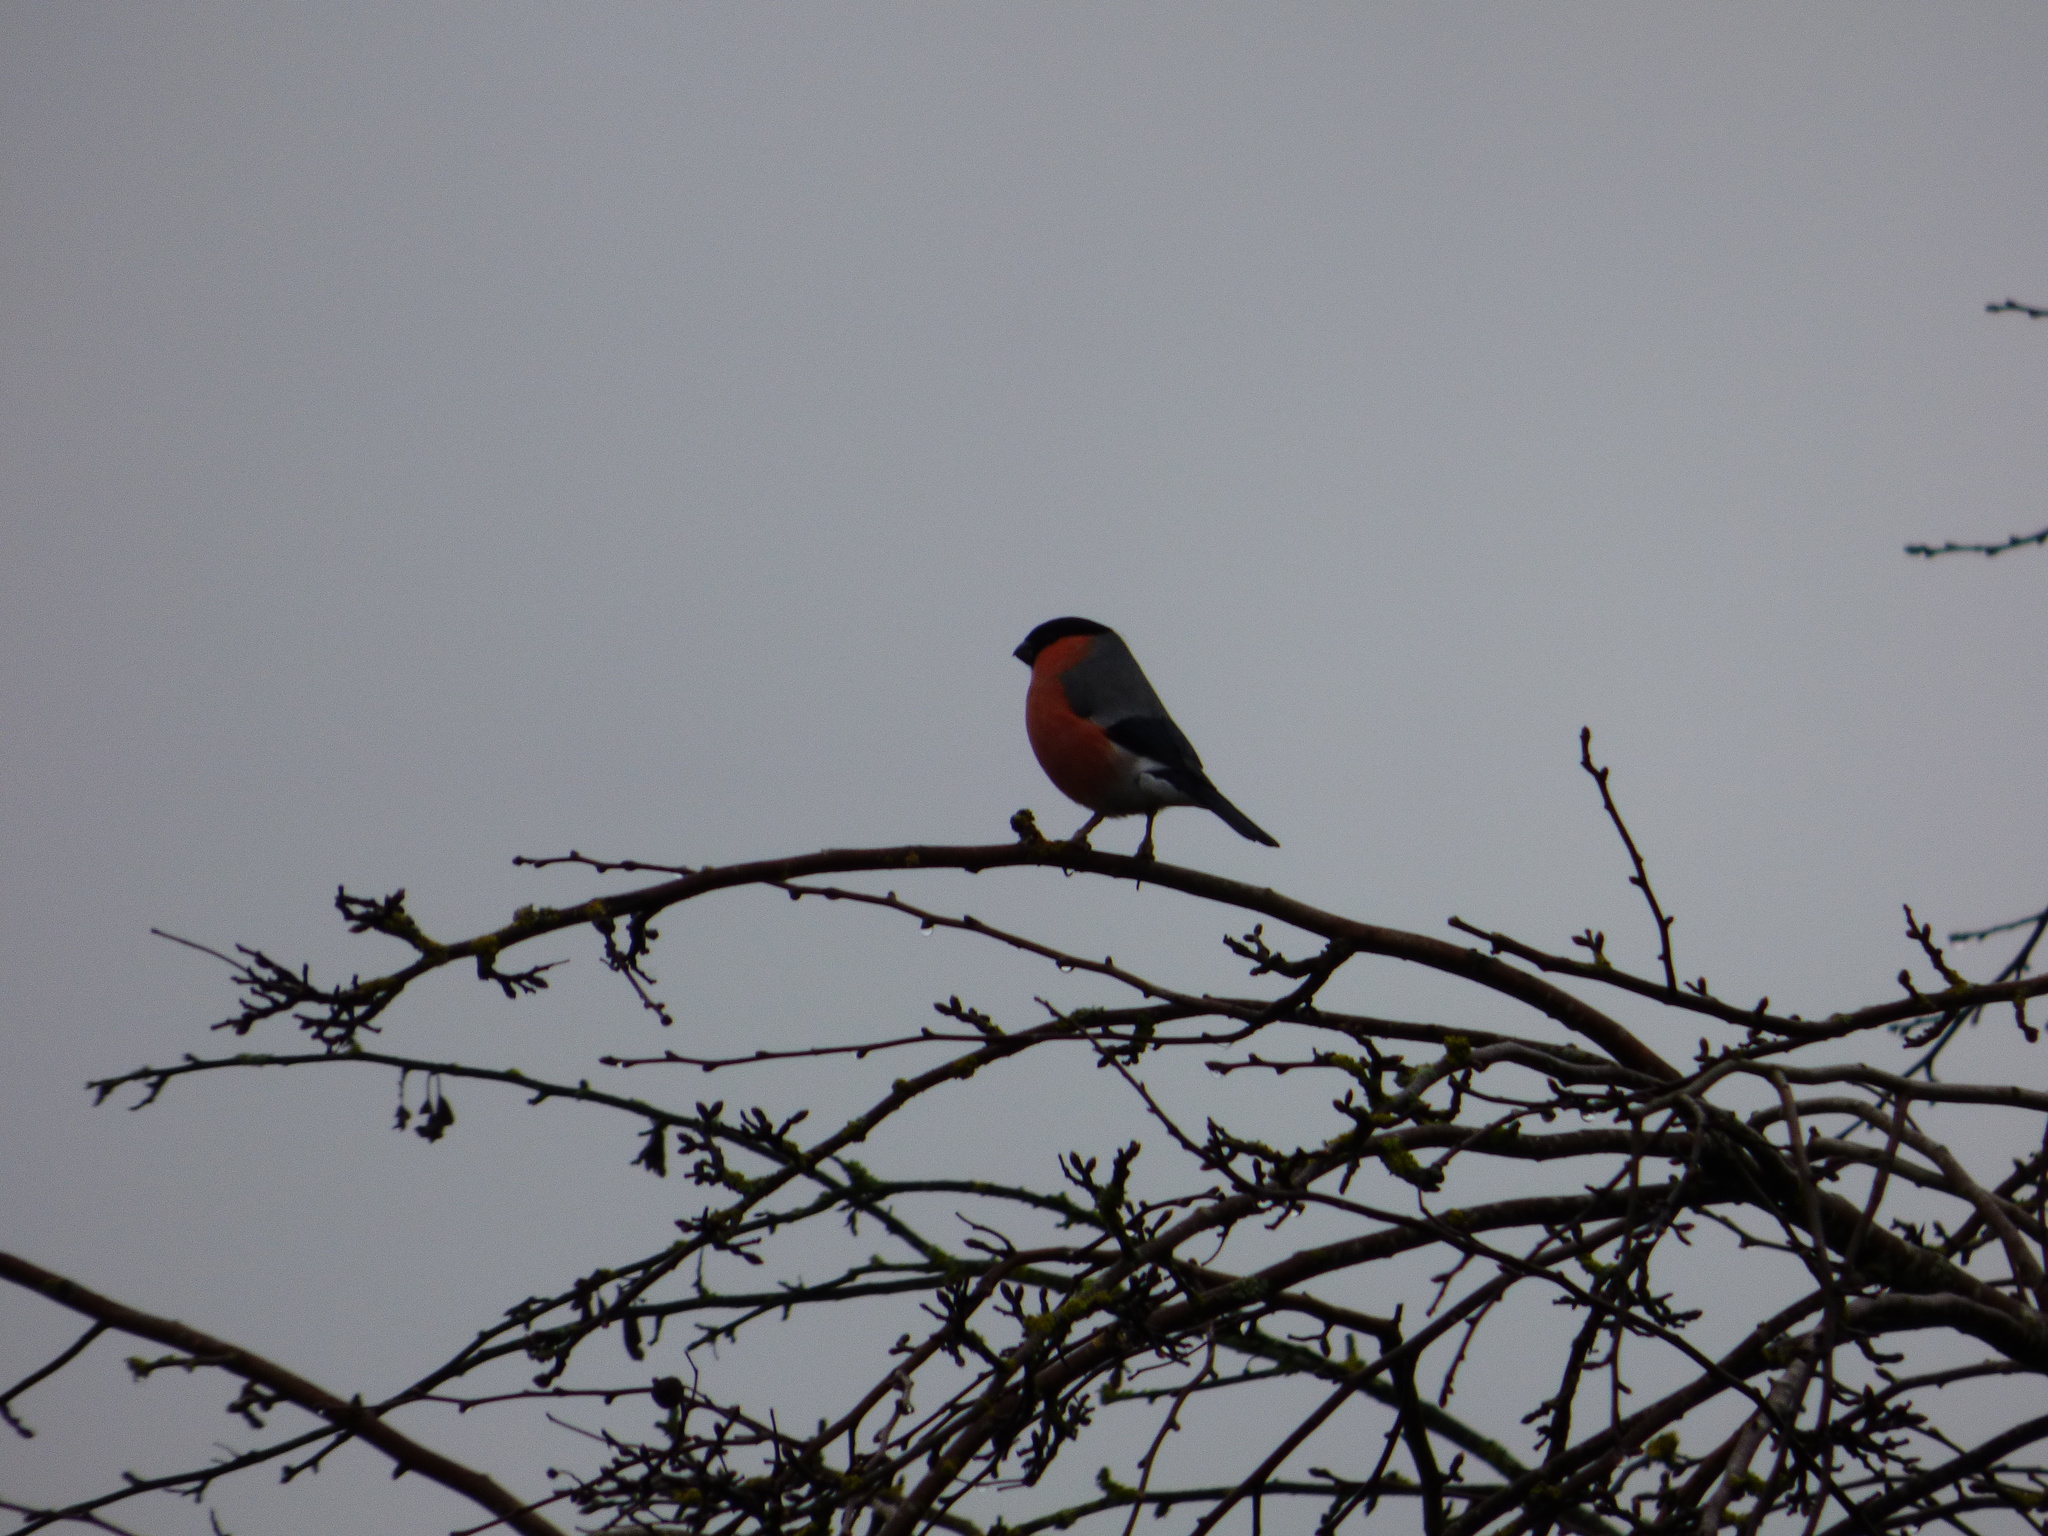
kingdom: Animalia
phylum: Chordata
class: Aves
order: Passeriformes
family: Fringillidae
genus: Pyrrhula
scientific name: Pyrrhula pyrrhula
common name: Eurasian bullfinch
